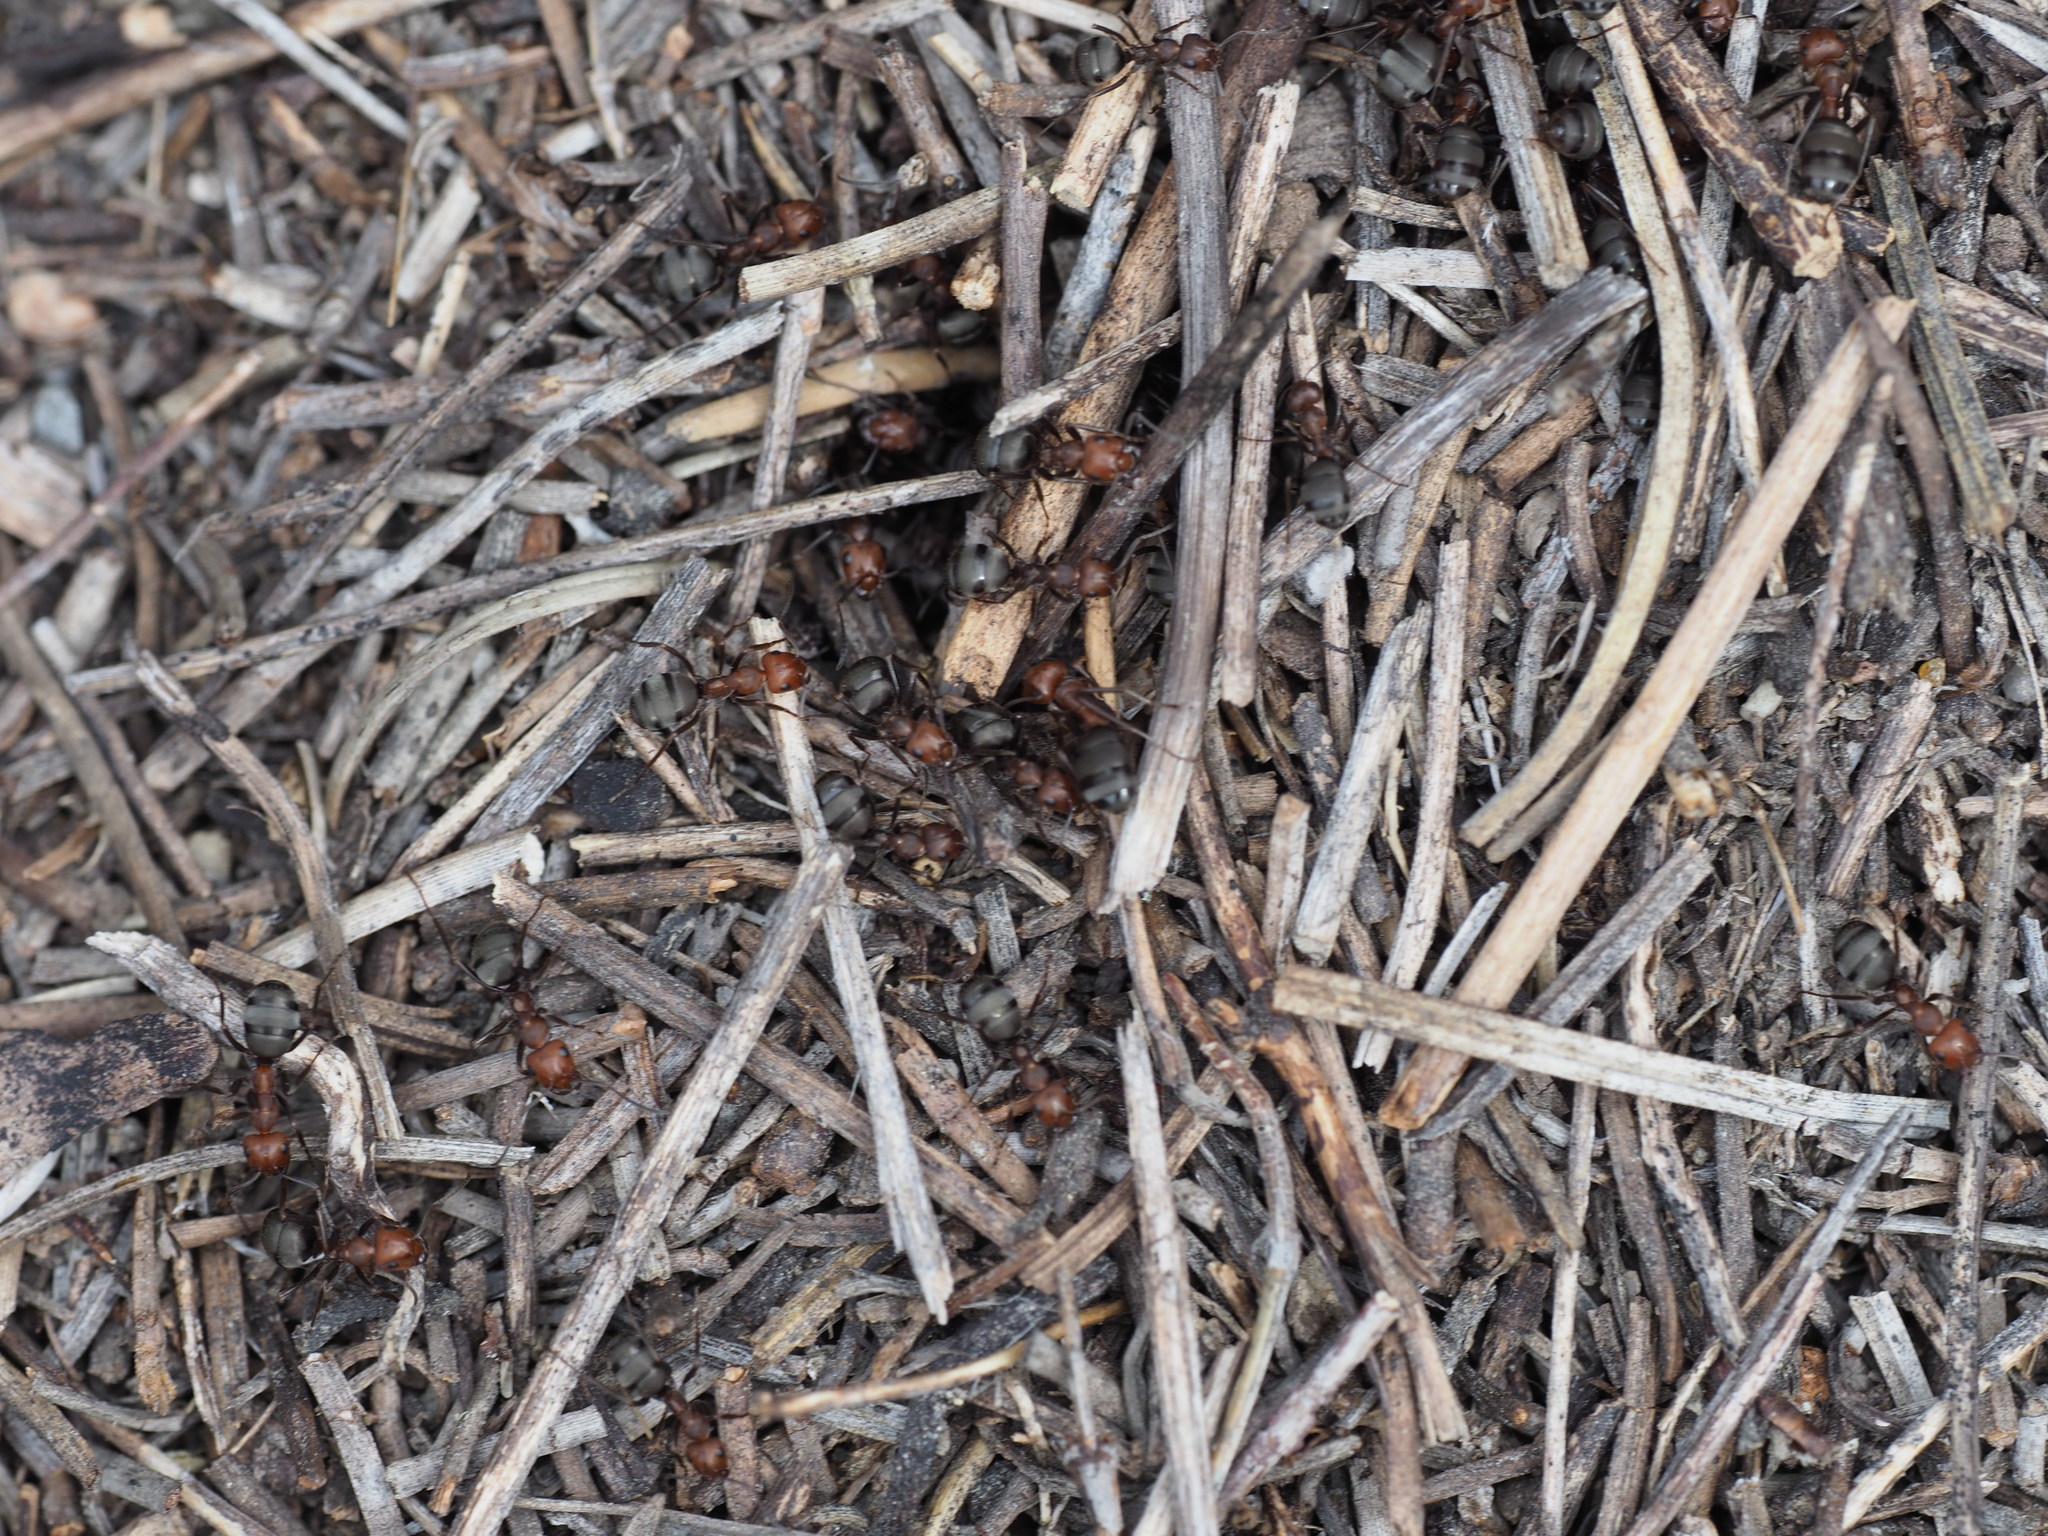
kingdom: Animalia
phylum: Arthropoda
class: Insecta
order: Hymenoptera
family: Formicidae
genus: Formica
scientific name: Formica obscuripes
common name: Western thatching ant
